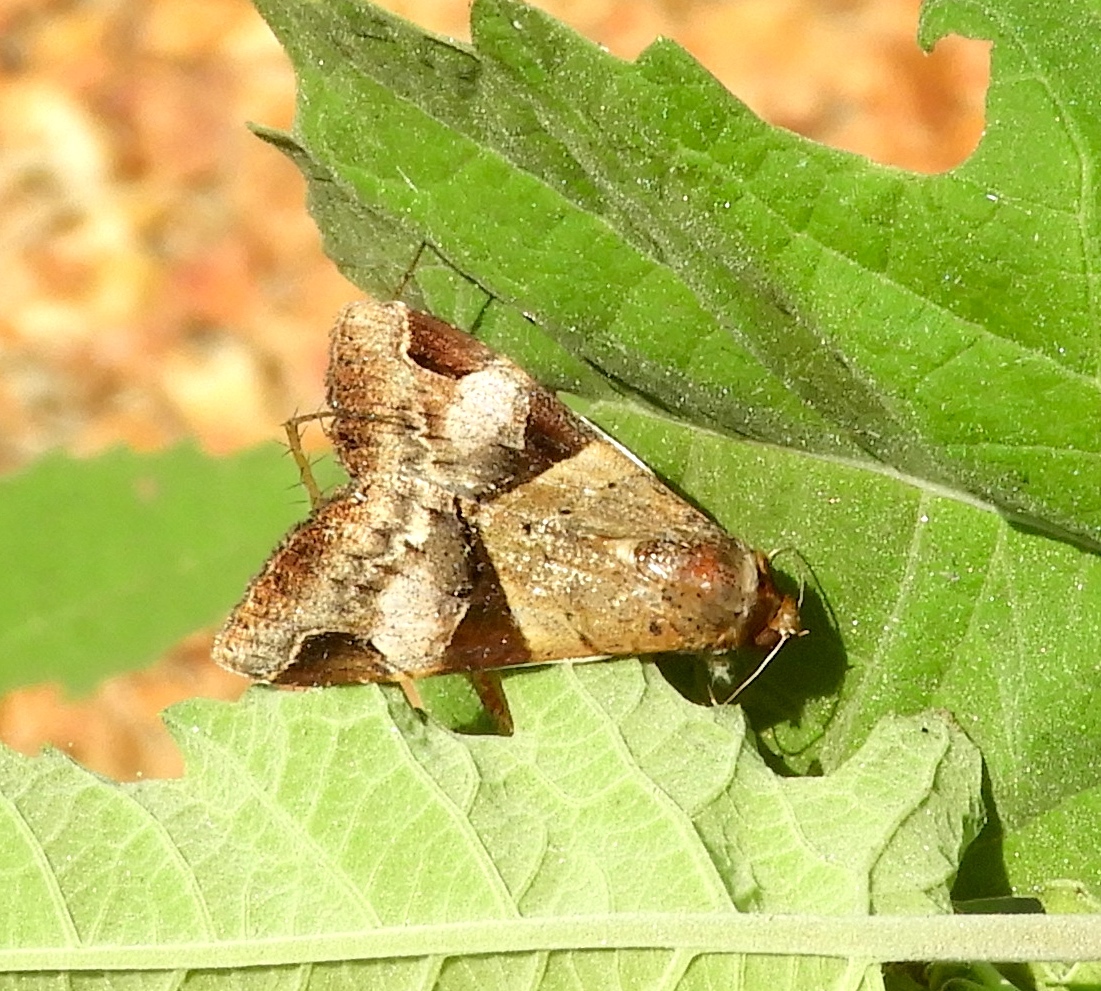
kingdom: Animalia
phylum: Arthropoda
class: Insecta
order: Lepidoptera
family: Erebidae
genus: Melipotis
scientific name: Melipotis fasciolaris
